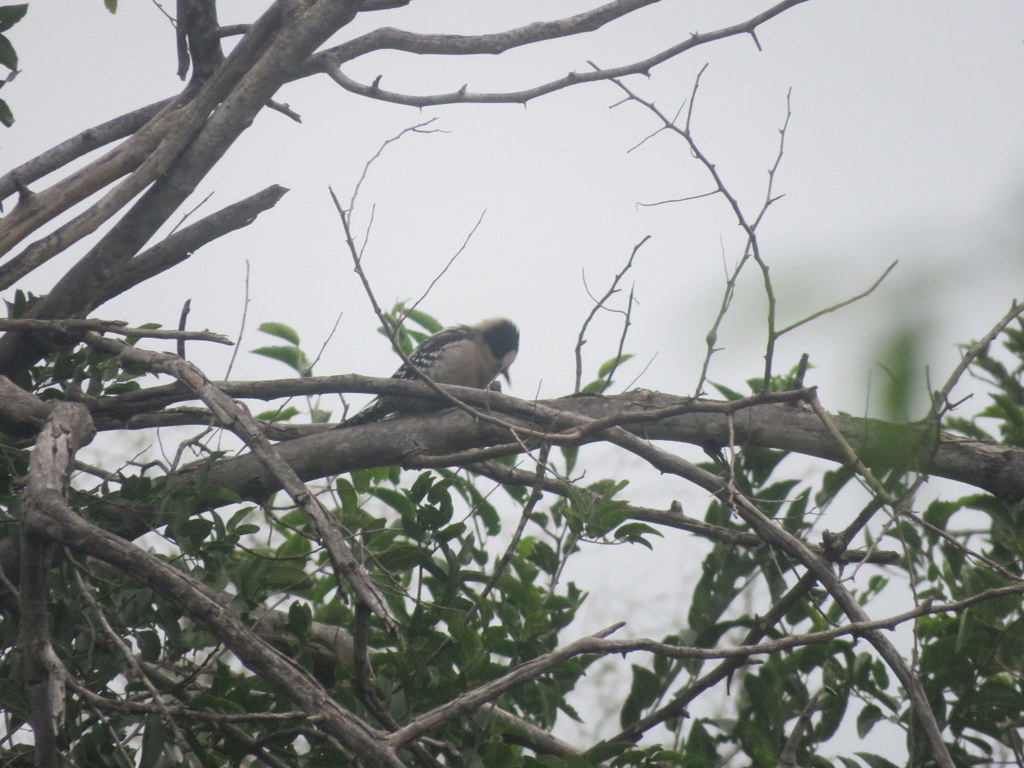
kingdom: Animalia
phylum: Chordata
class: Aves
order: Piciformes
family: Picidae
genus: Melanerpes
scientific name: Melanerpes cactorum
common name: White-fronted woodpecker
